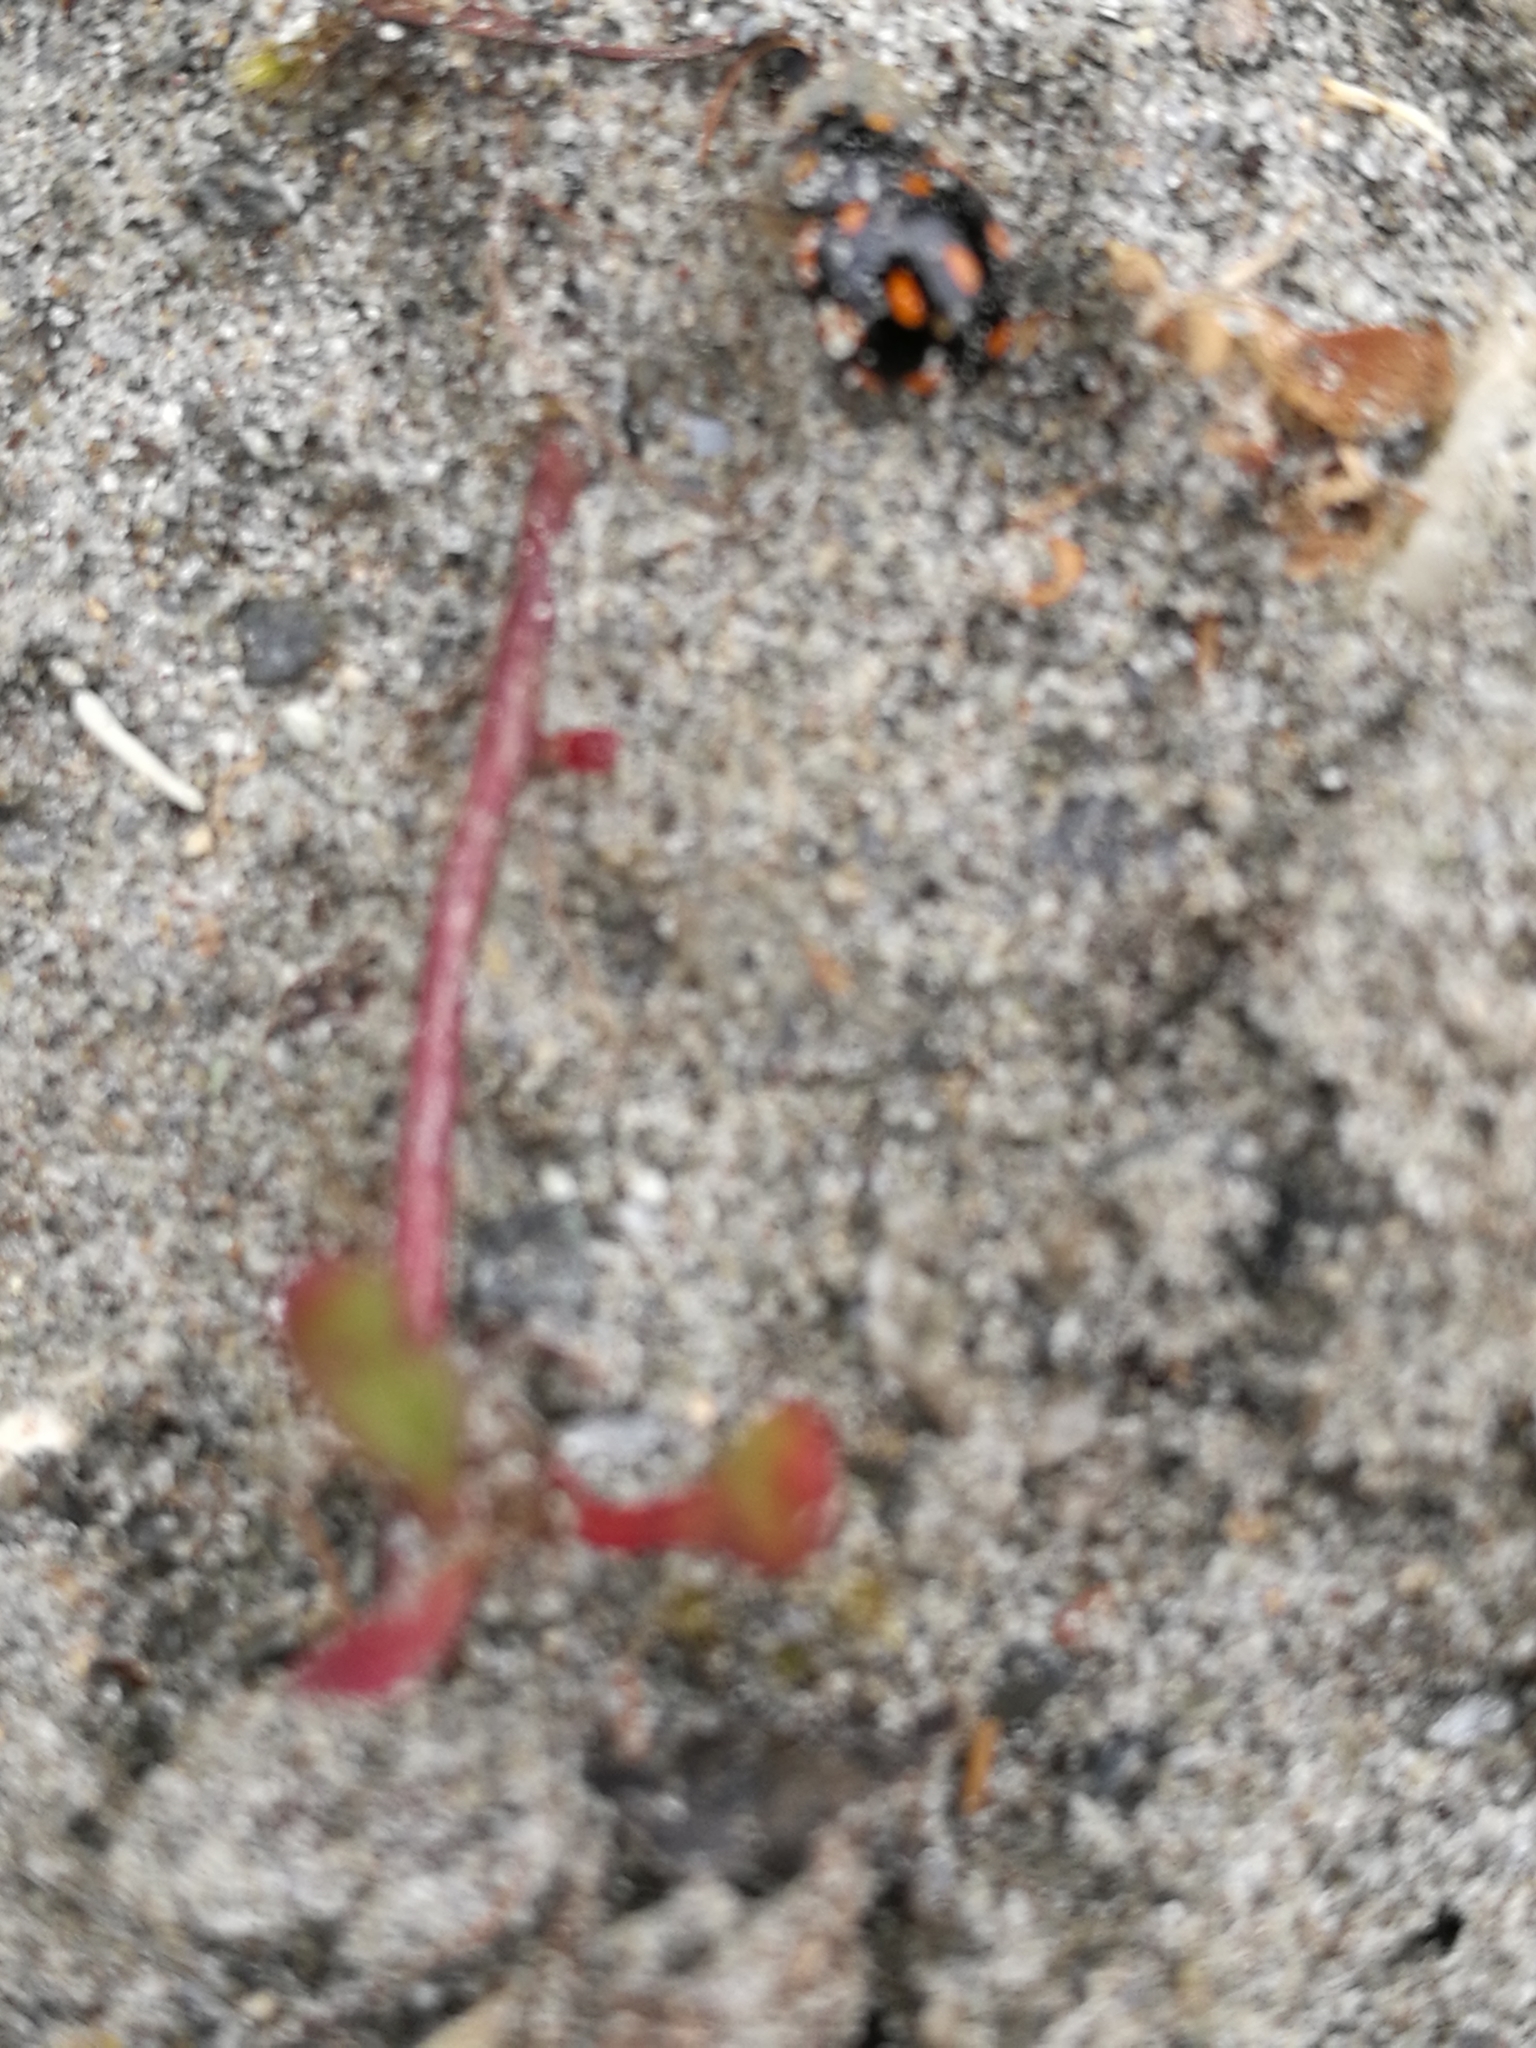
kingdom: Animalia
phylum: Arthropoda
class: Insecta
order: Coleoptera
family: Coccinellidae
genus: Coccinella
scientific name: Coccinella leonina
